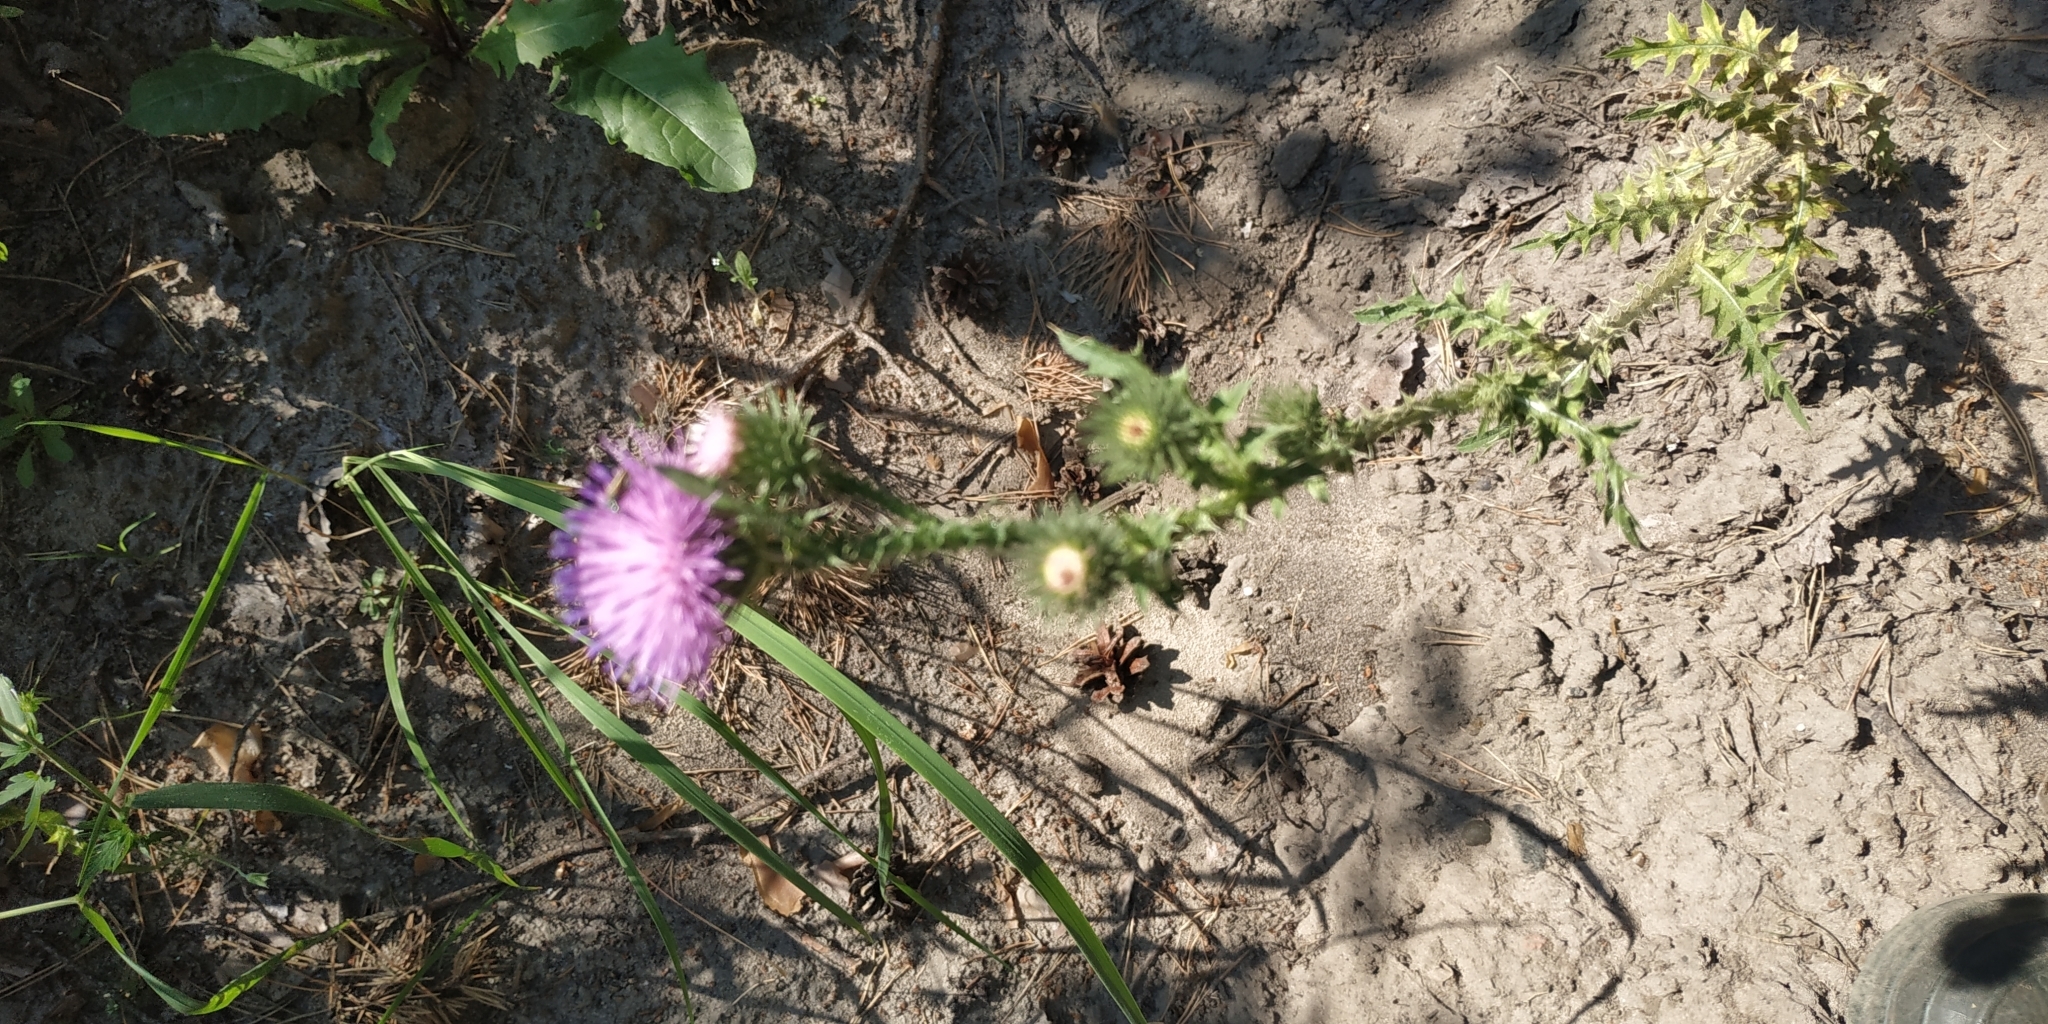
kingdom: Plantae
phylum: Tracheophyta
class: Magnoliopsida
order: Asterales
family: Asteraceae
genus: Carduus
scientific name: Carduus acanthoides
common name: Plumeless thistle
